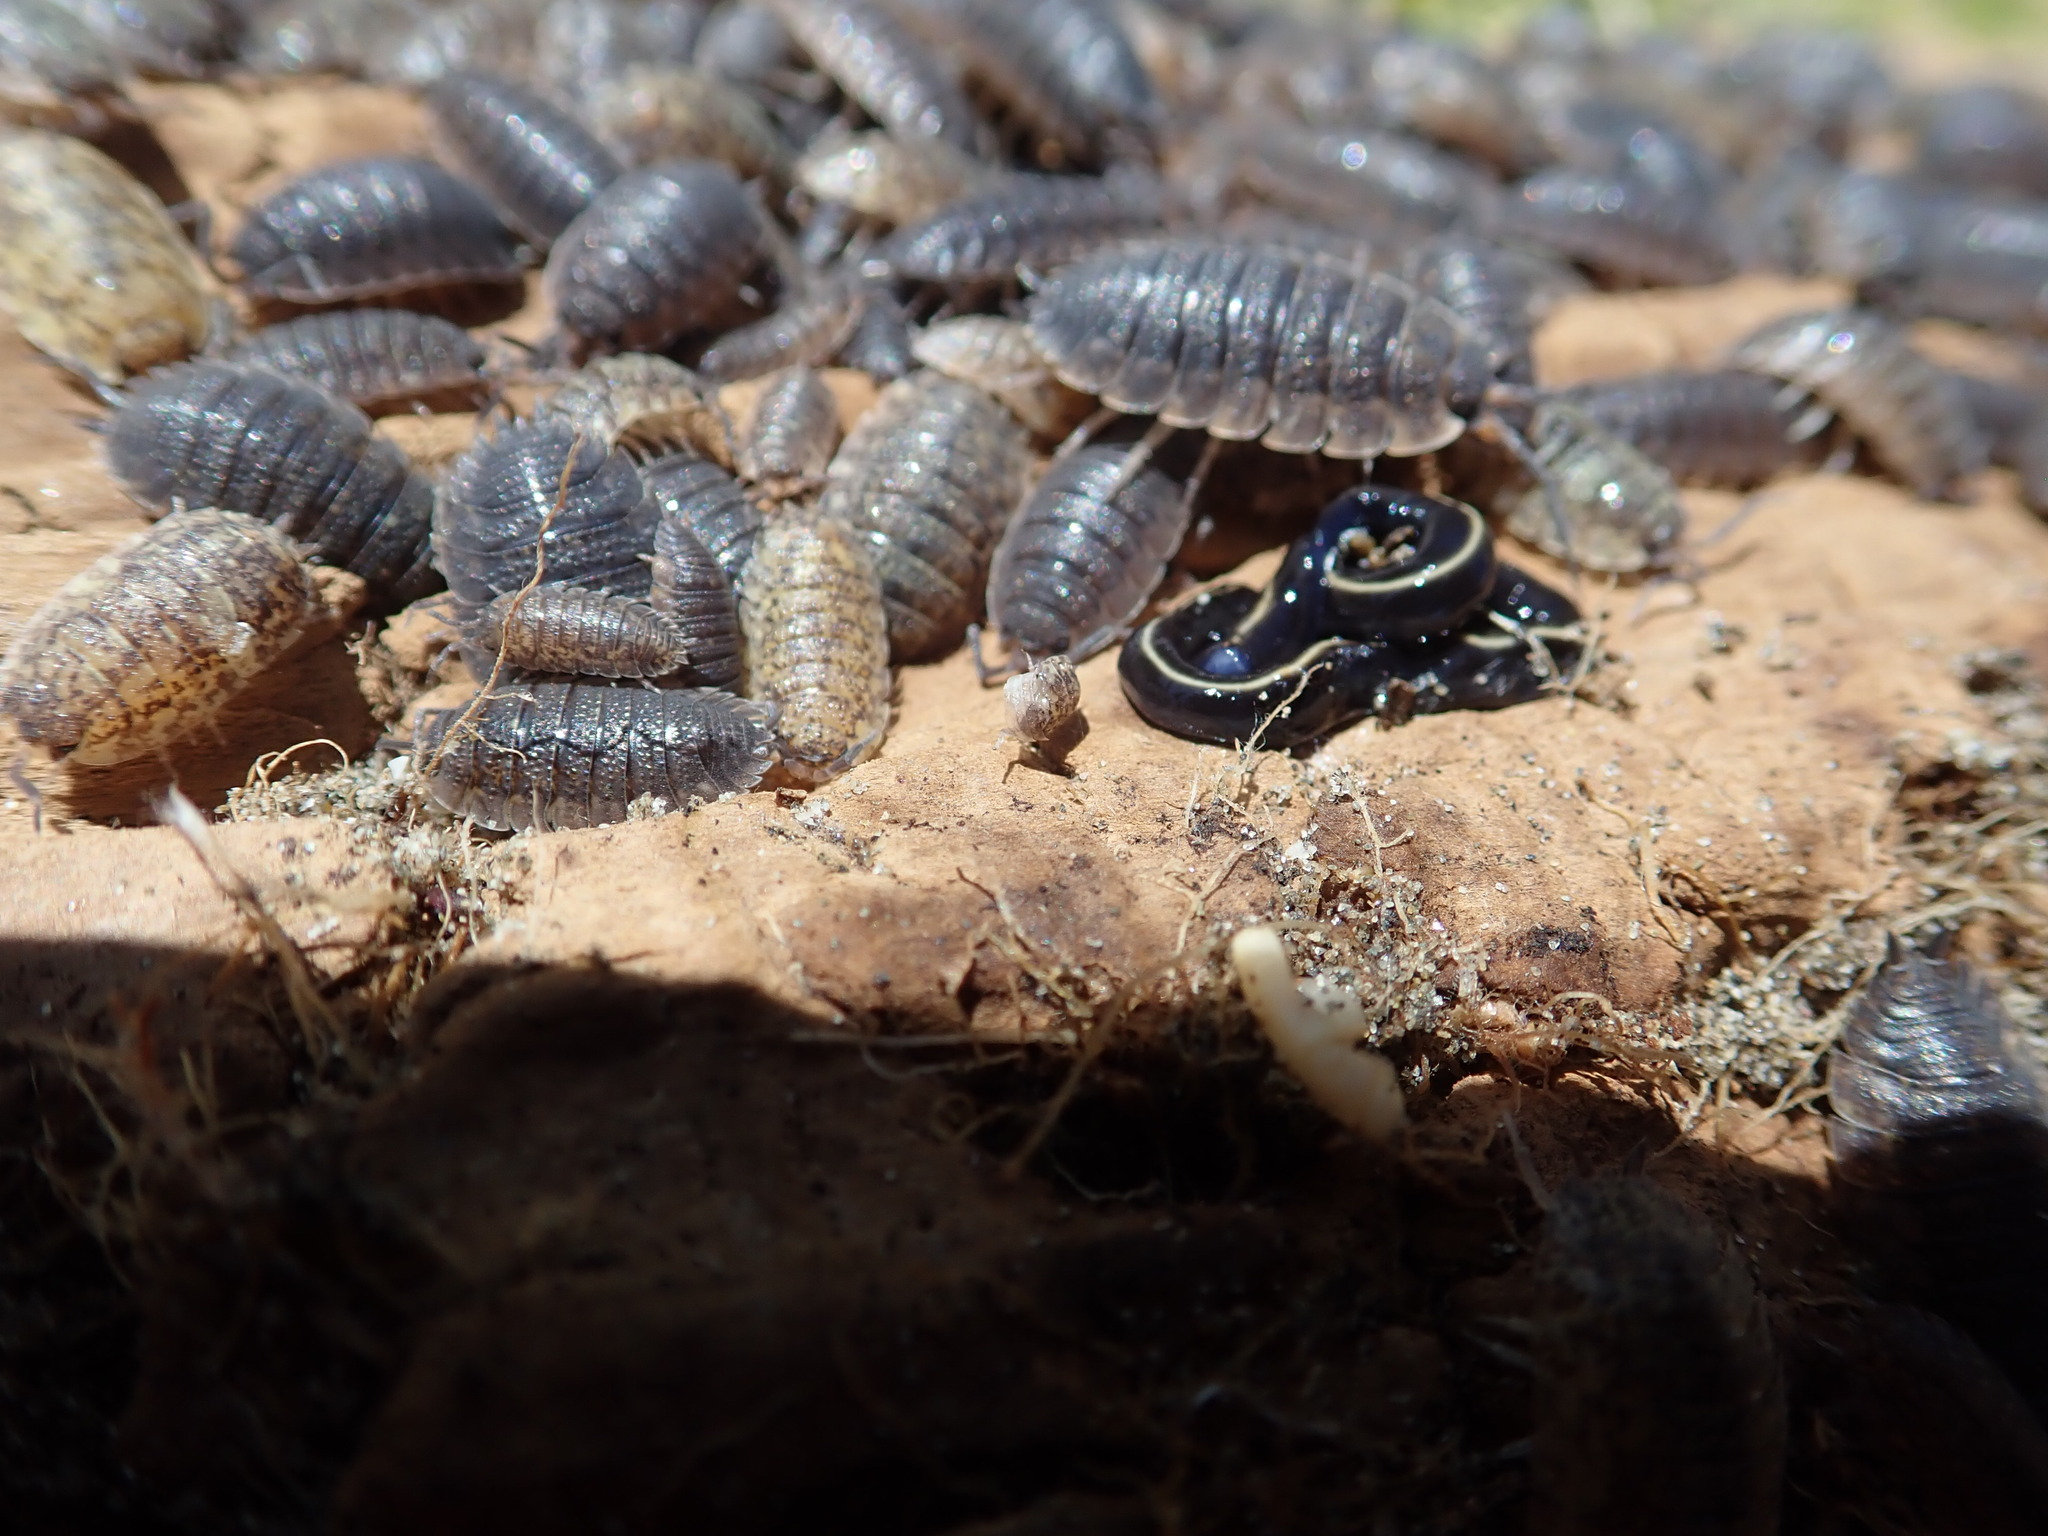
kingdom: Animalia
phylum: Platyhelminthes
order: Tricladida
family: Geoplanidae
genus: Caenoplana
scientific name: Caenoplana coerulea
